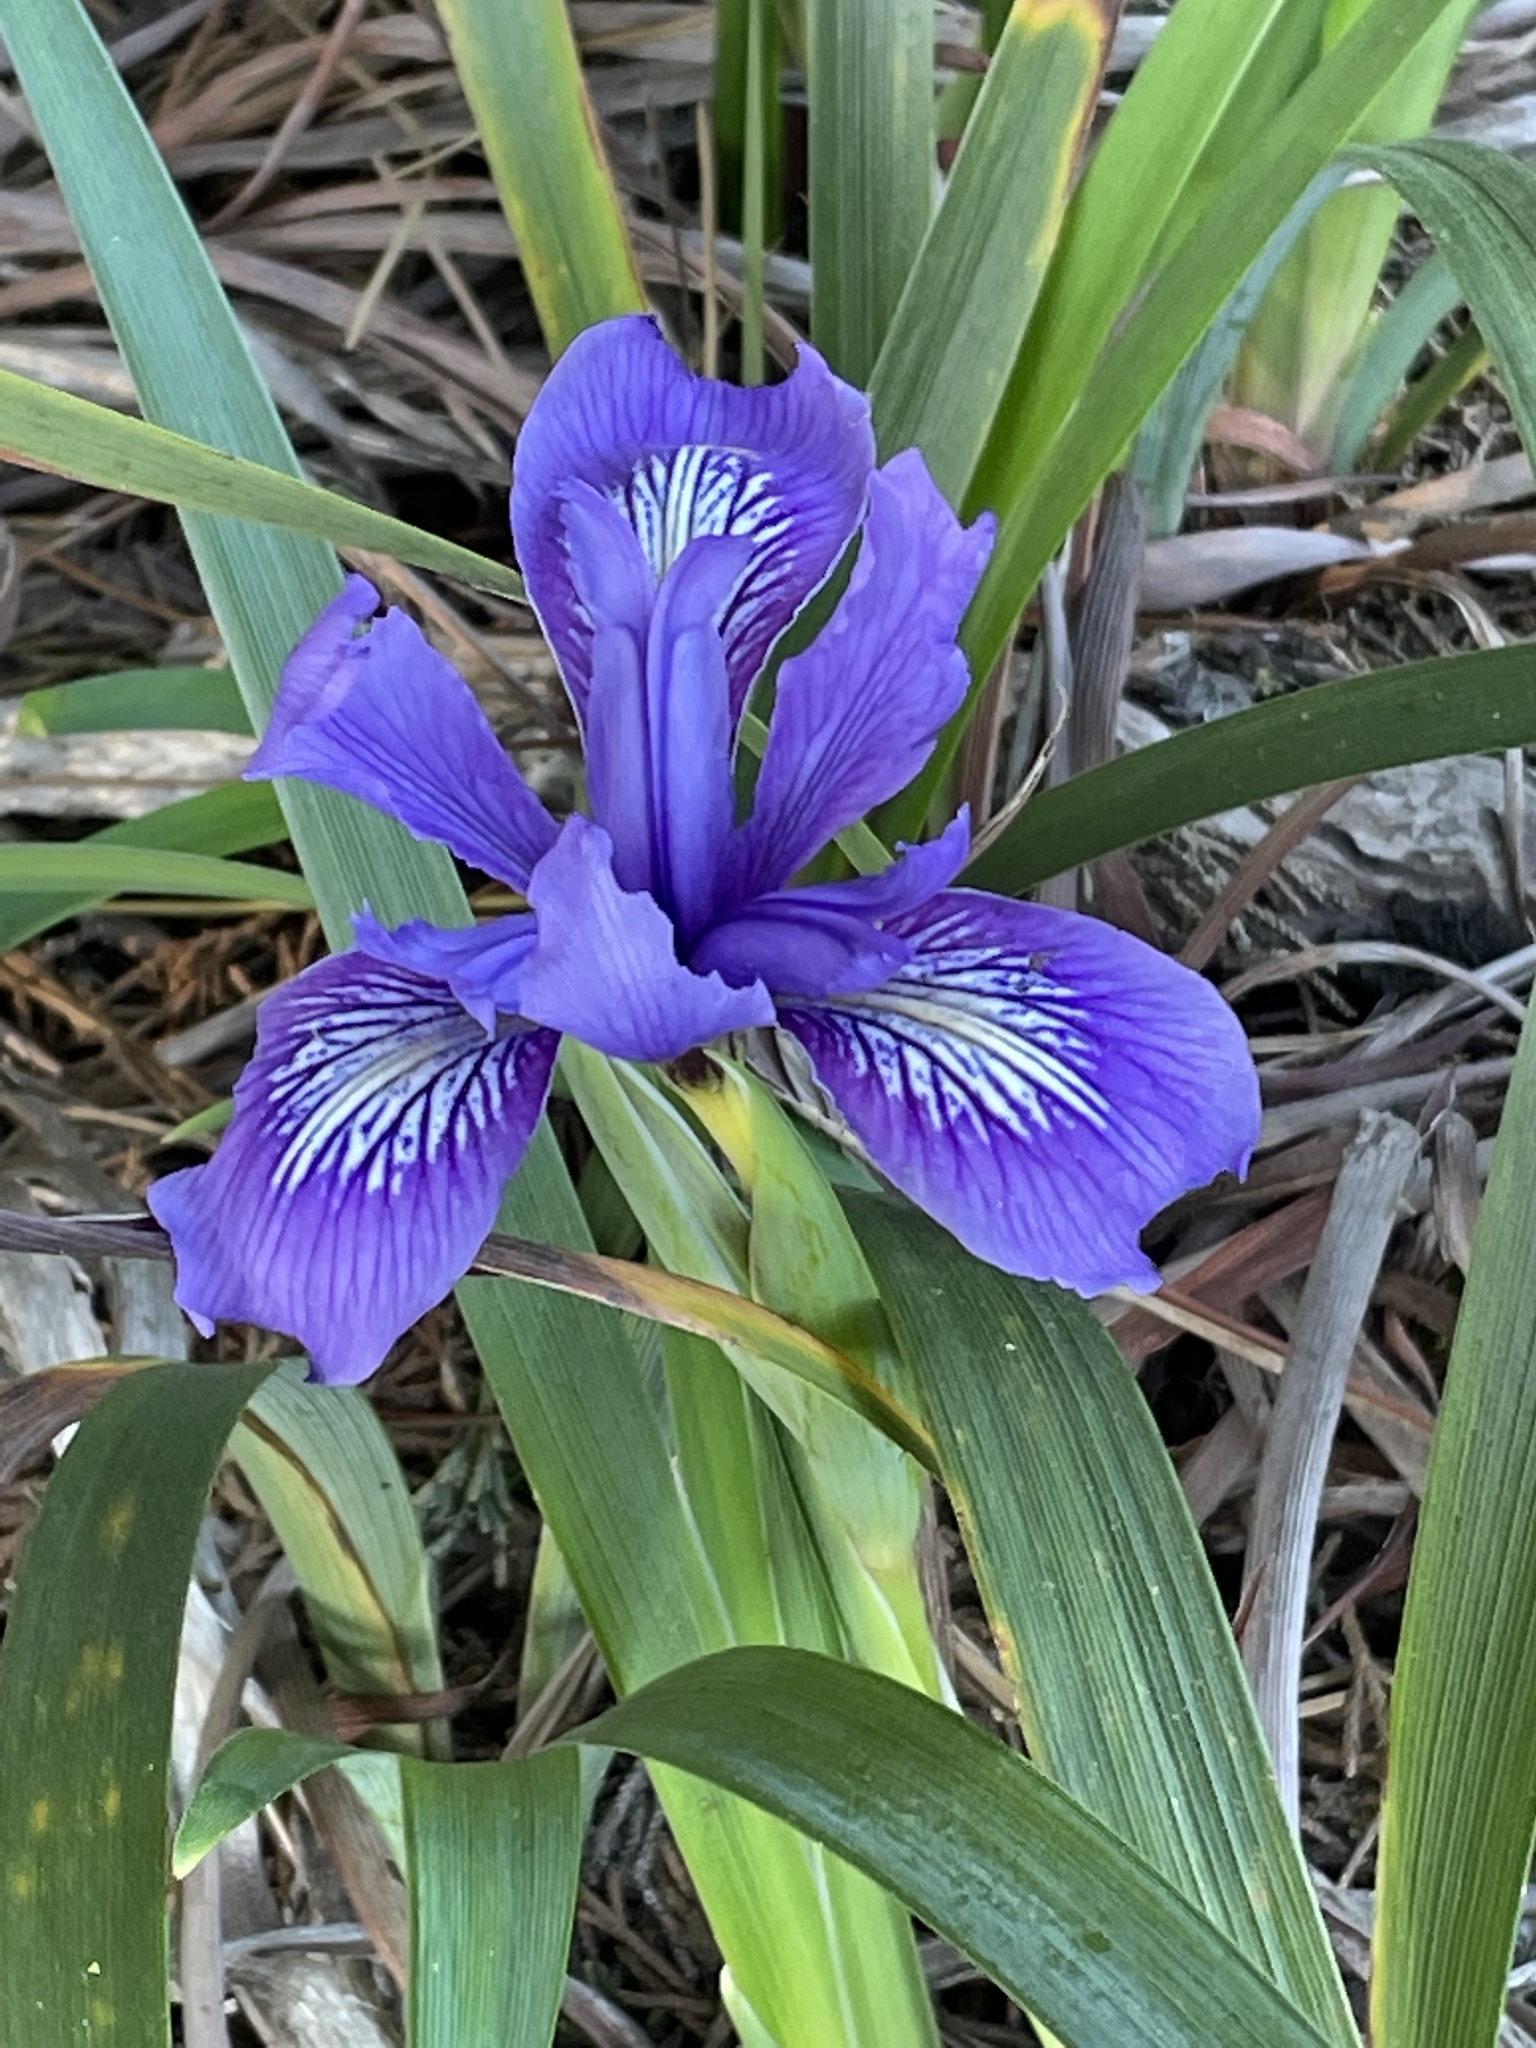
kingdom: Plantae
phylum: Tracheophyta
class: Liliopsida
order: Asparagales
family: Iridaceae
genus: Iris
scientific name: Iris douglasiana
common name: Marin iris
